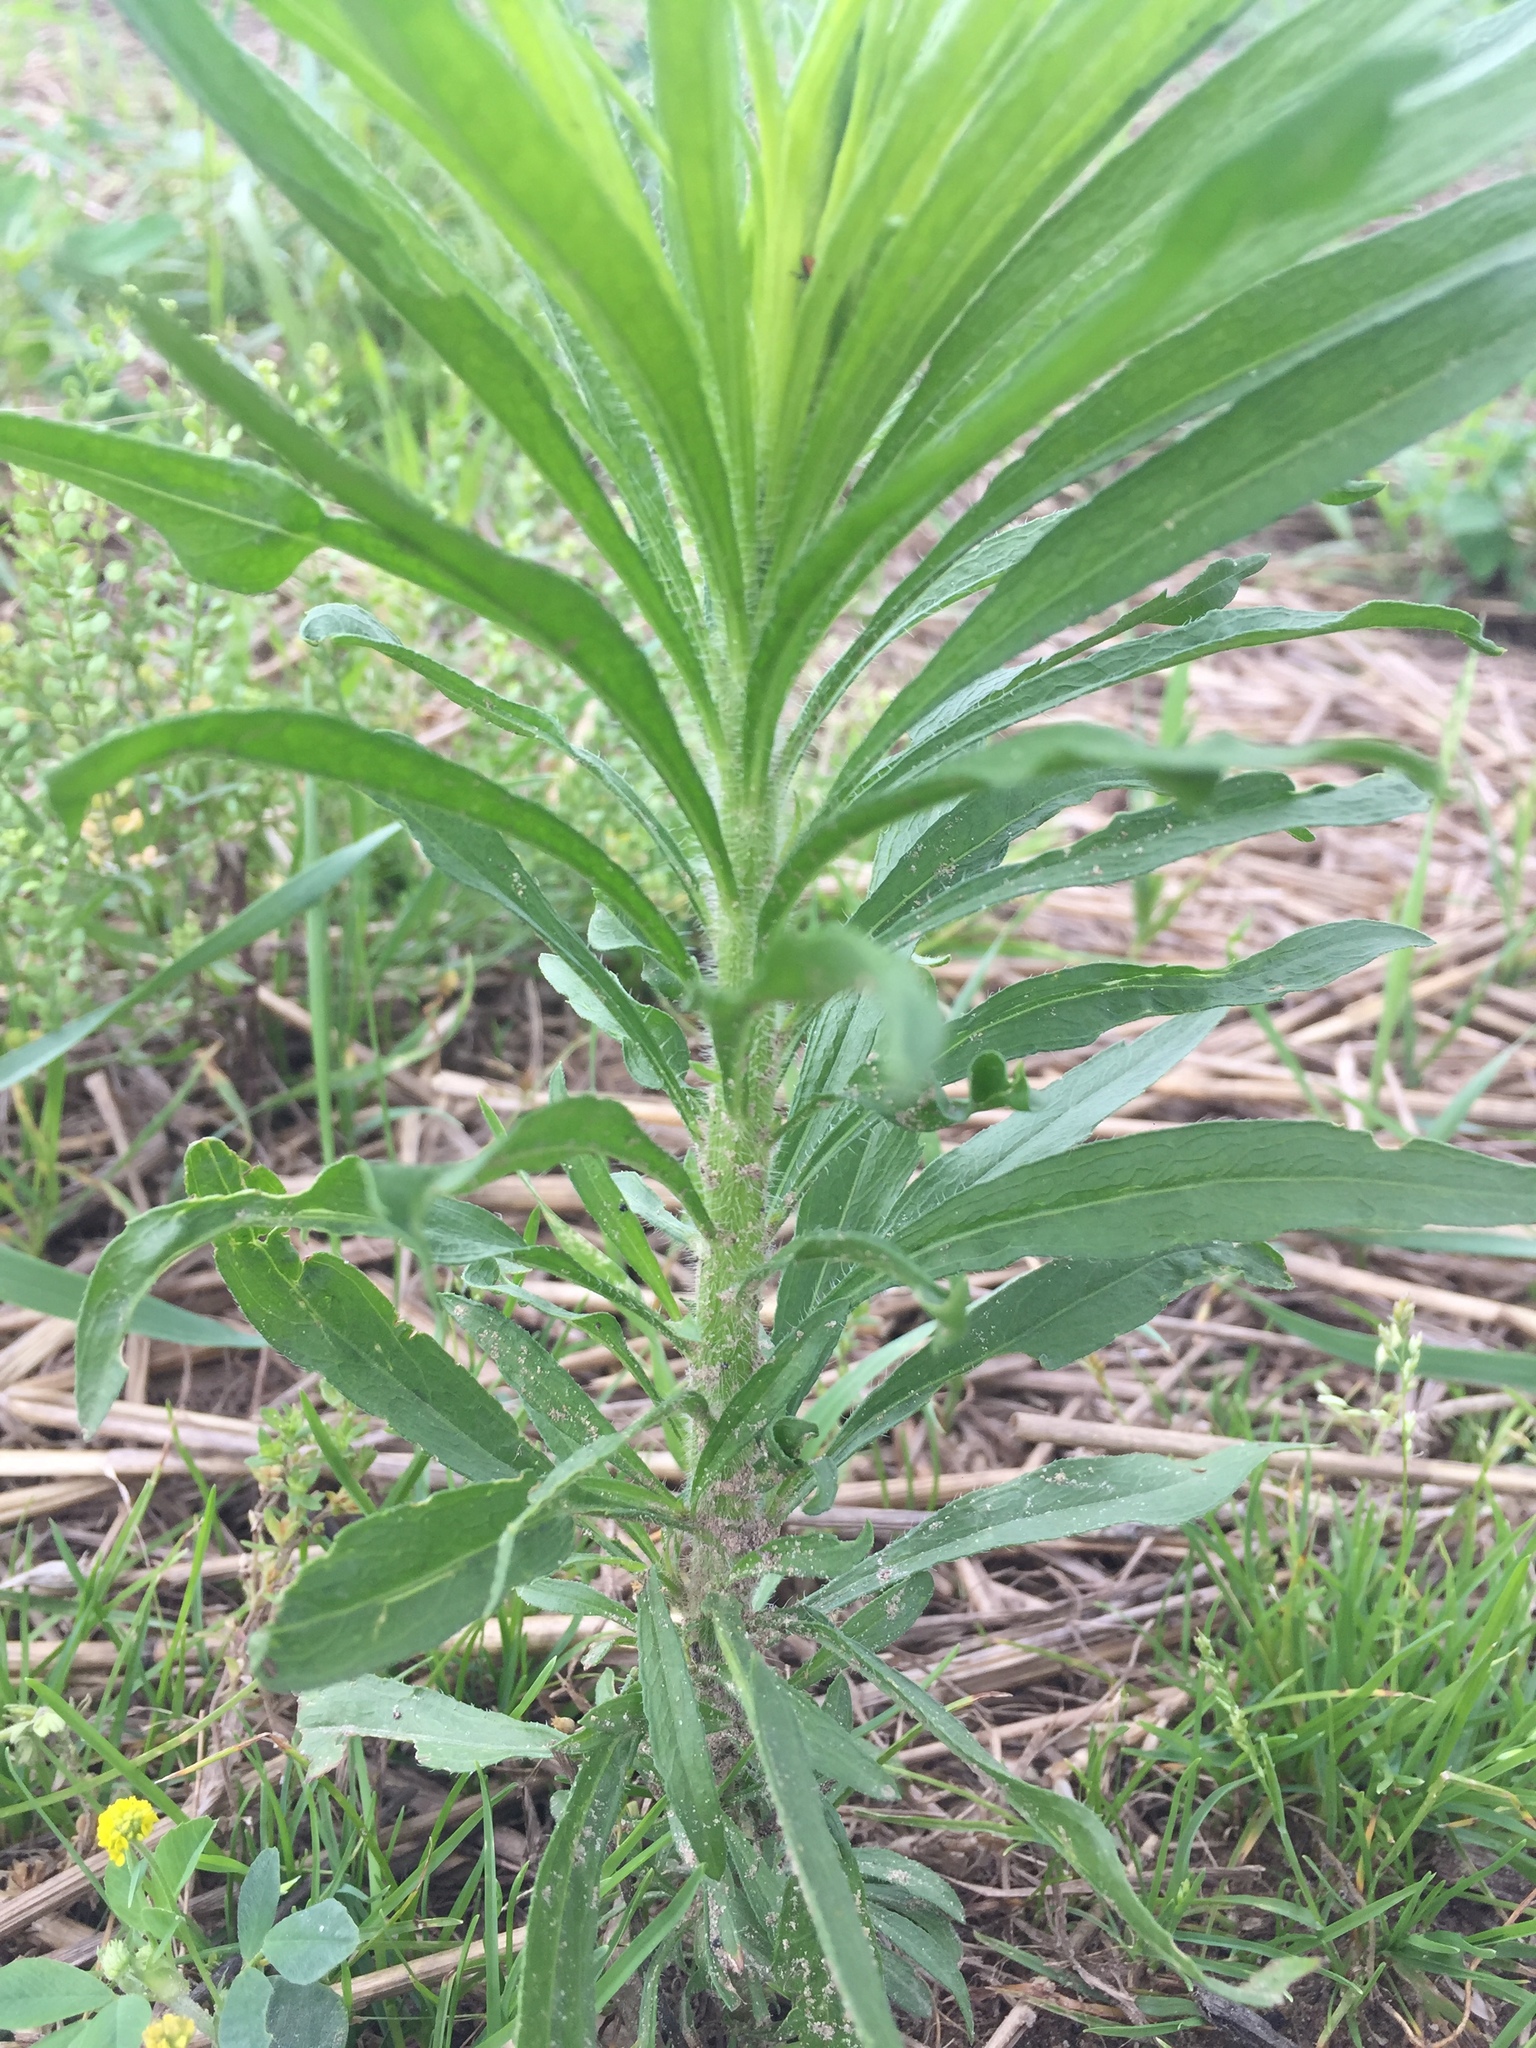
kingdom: Plantae
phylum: Tracheophyta
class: Magnoliopsida
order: Asterales
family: Asteraceae
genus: Erigeron
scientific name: Erigeron canadensis
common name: Canadian fleabane
